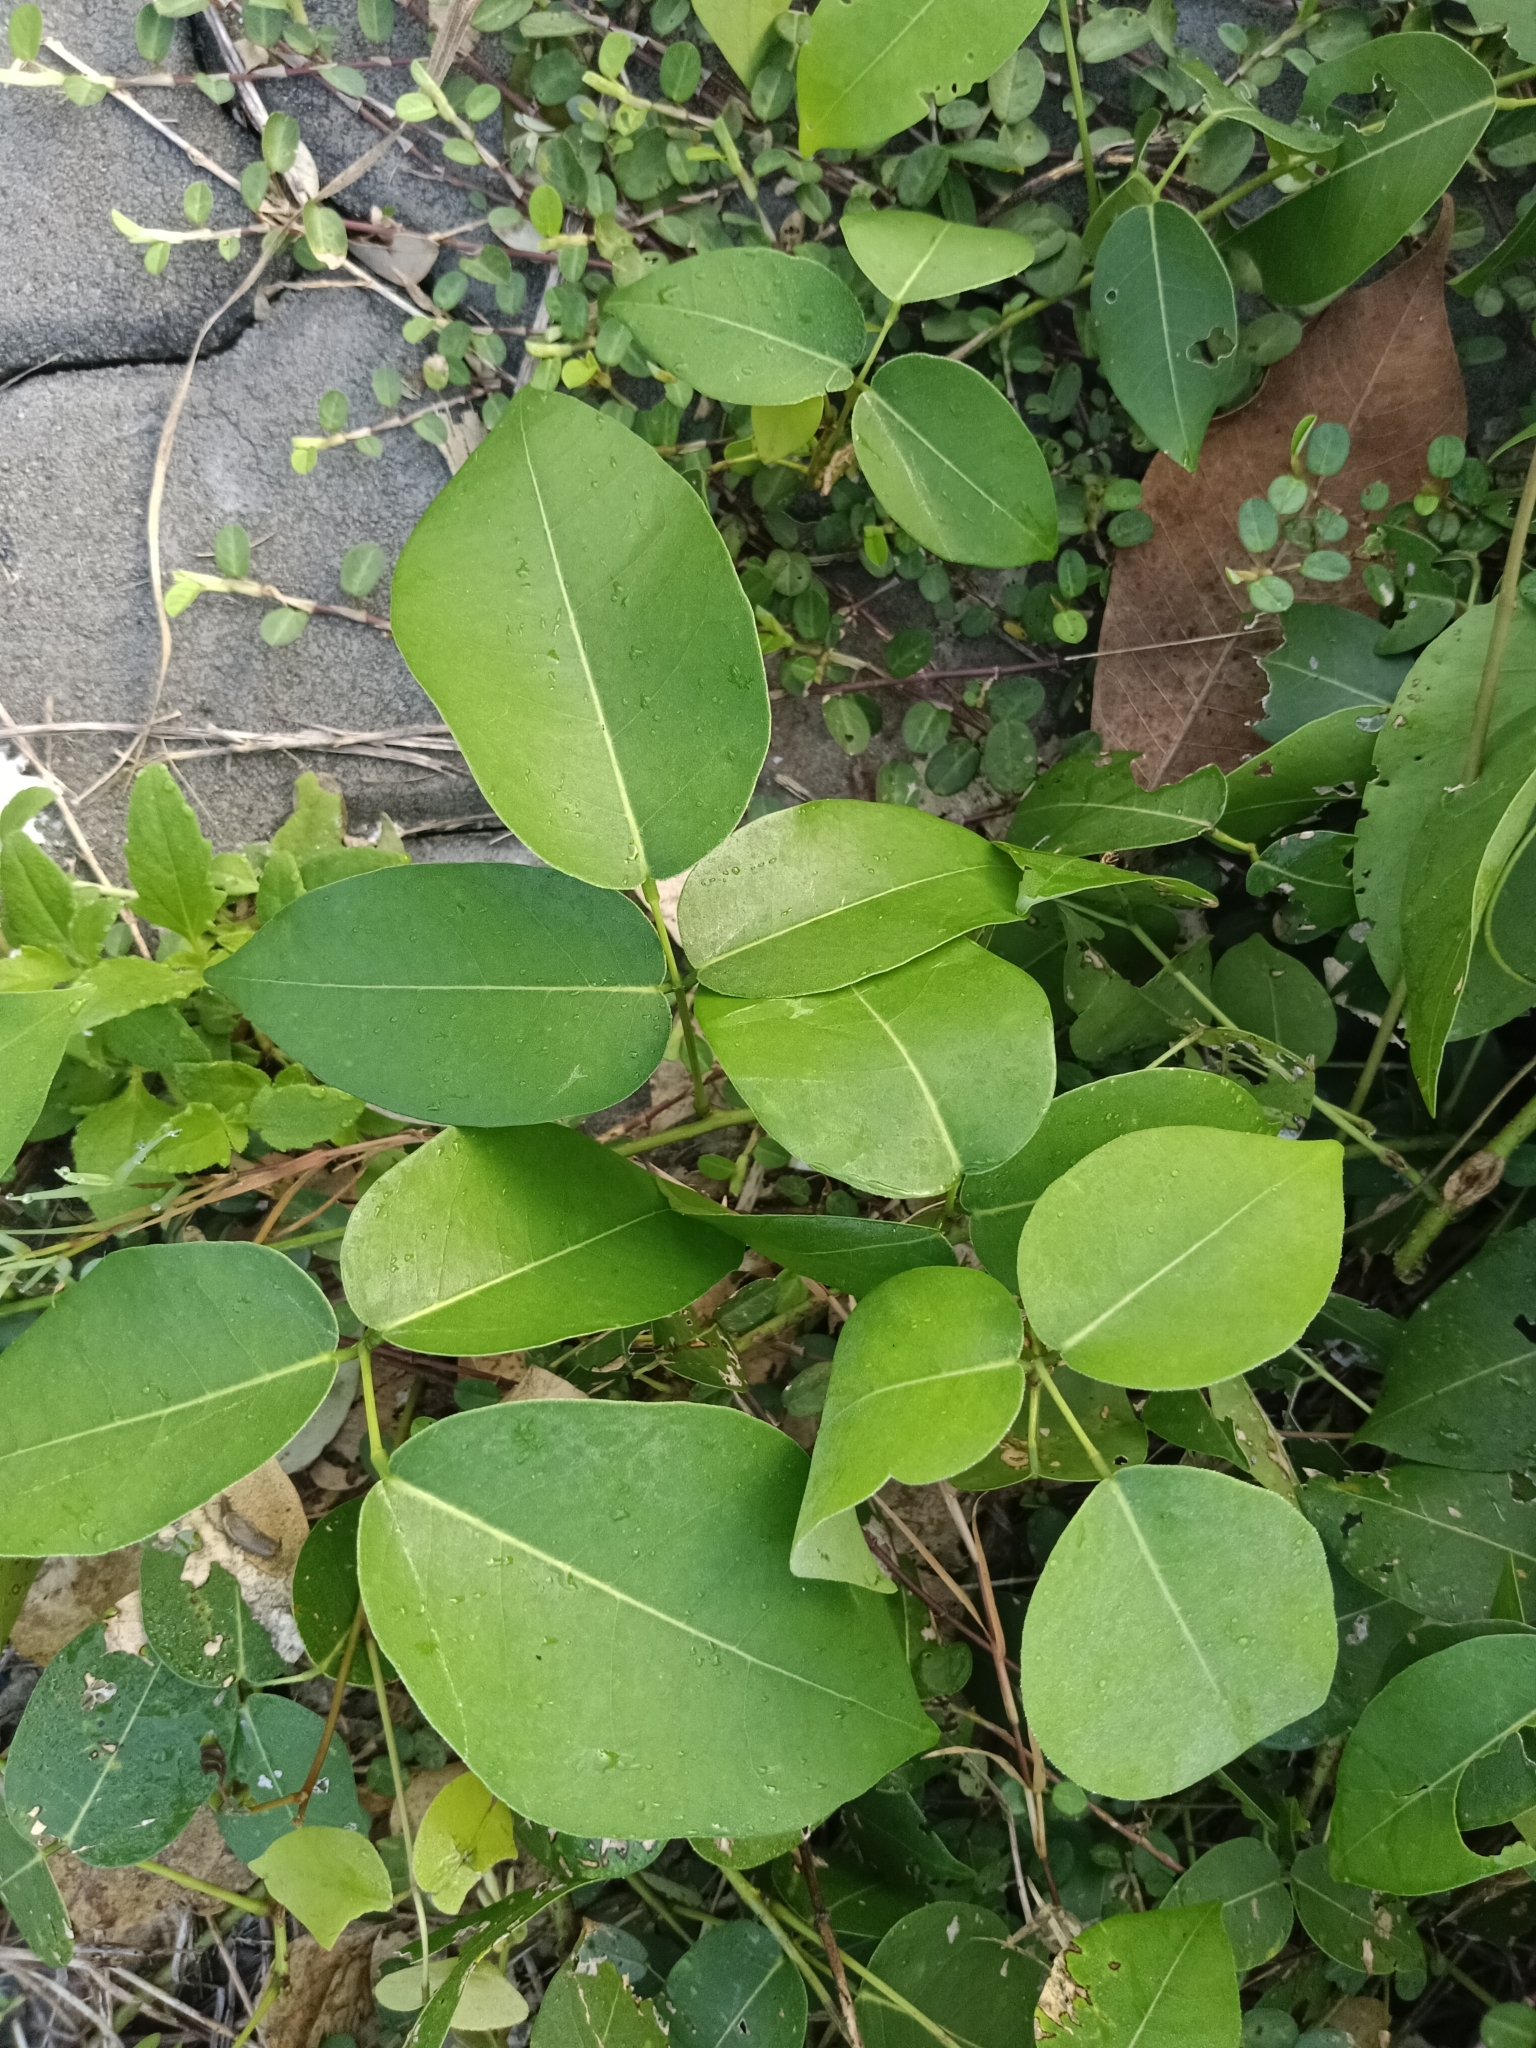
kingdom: Plantae
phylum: Tracheophyta
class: Magnoliopsida
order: Fabales
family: Fabaceae
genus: Derris
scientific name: Derris trifoliata
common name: Three-leaf derris
